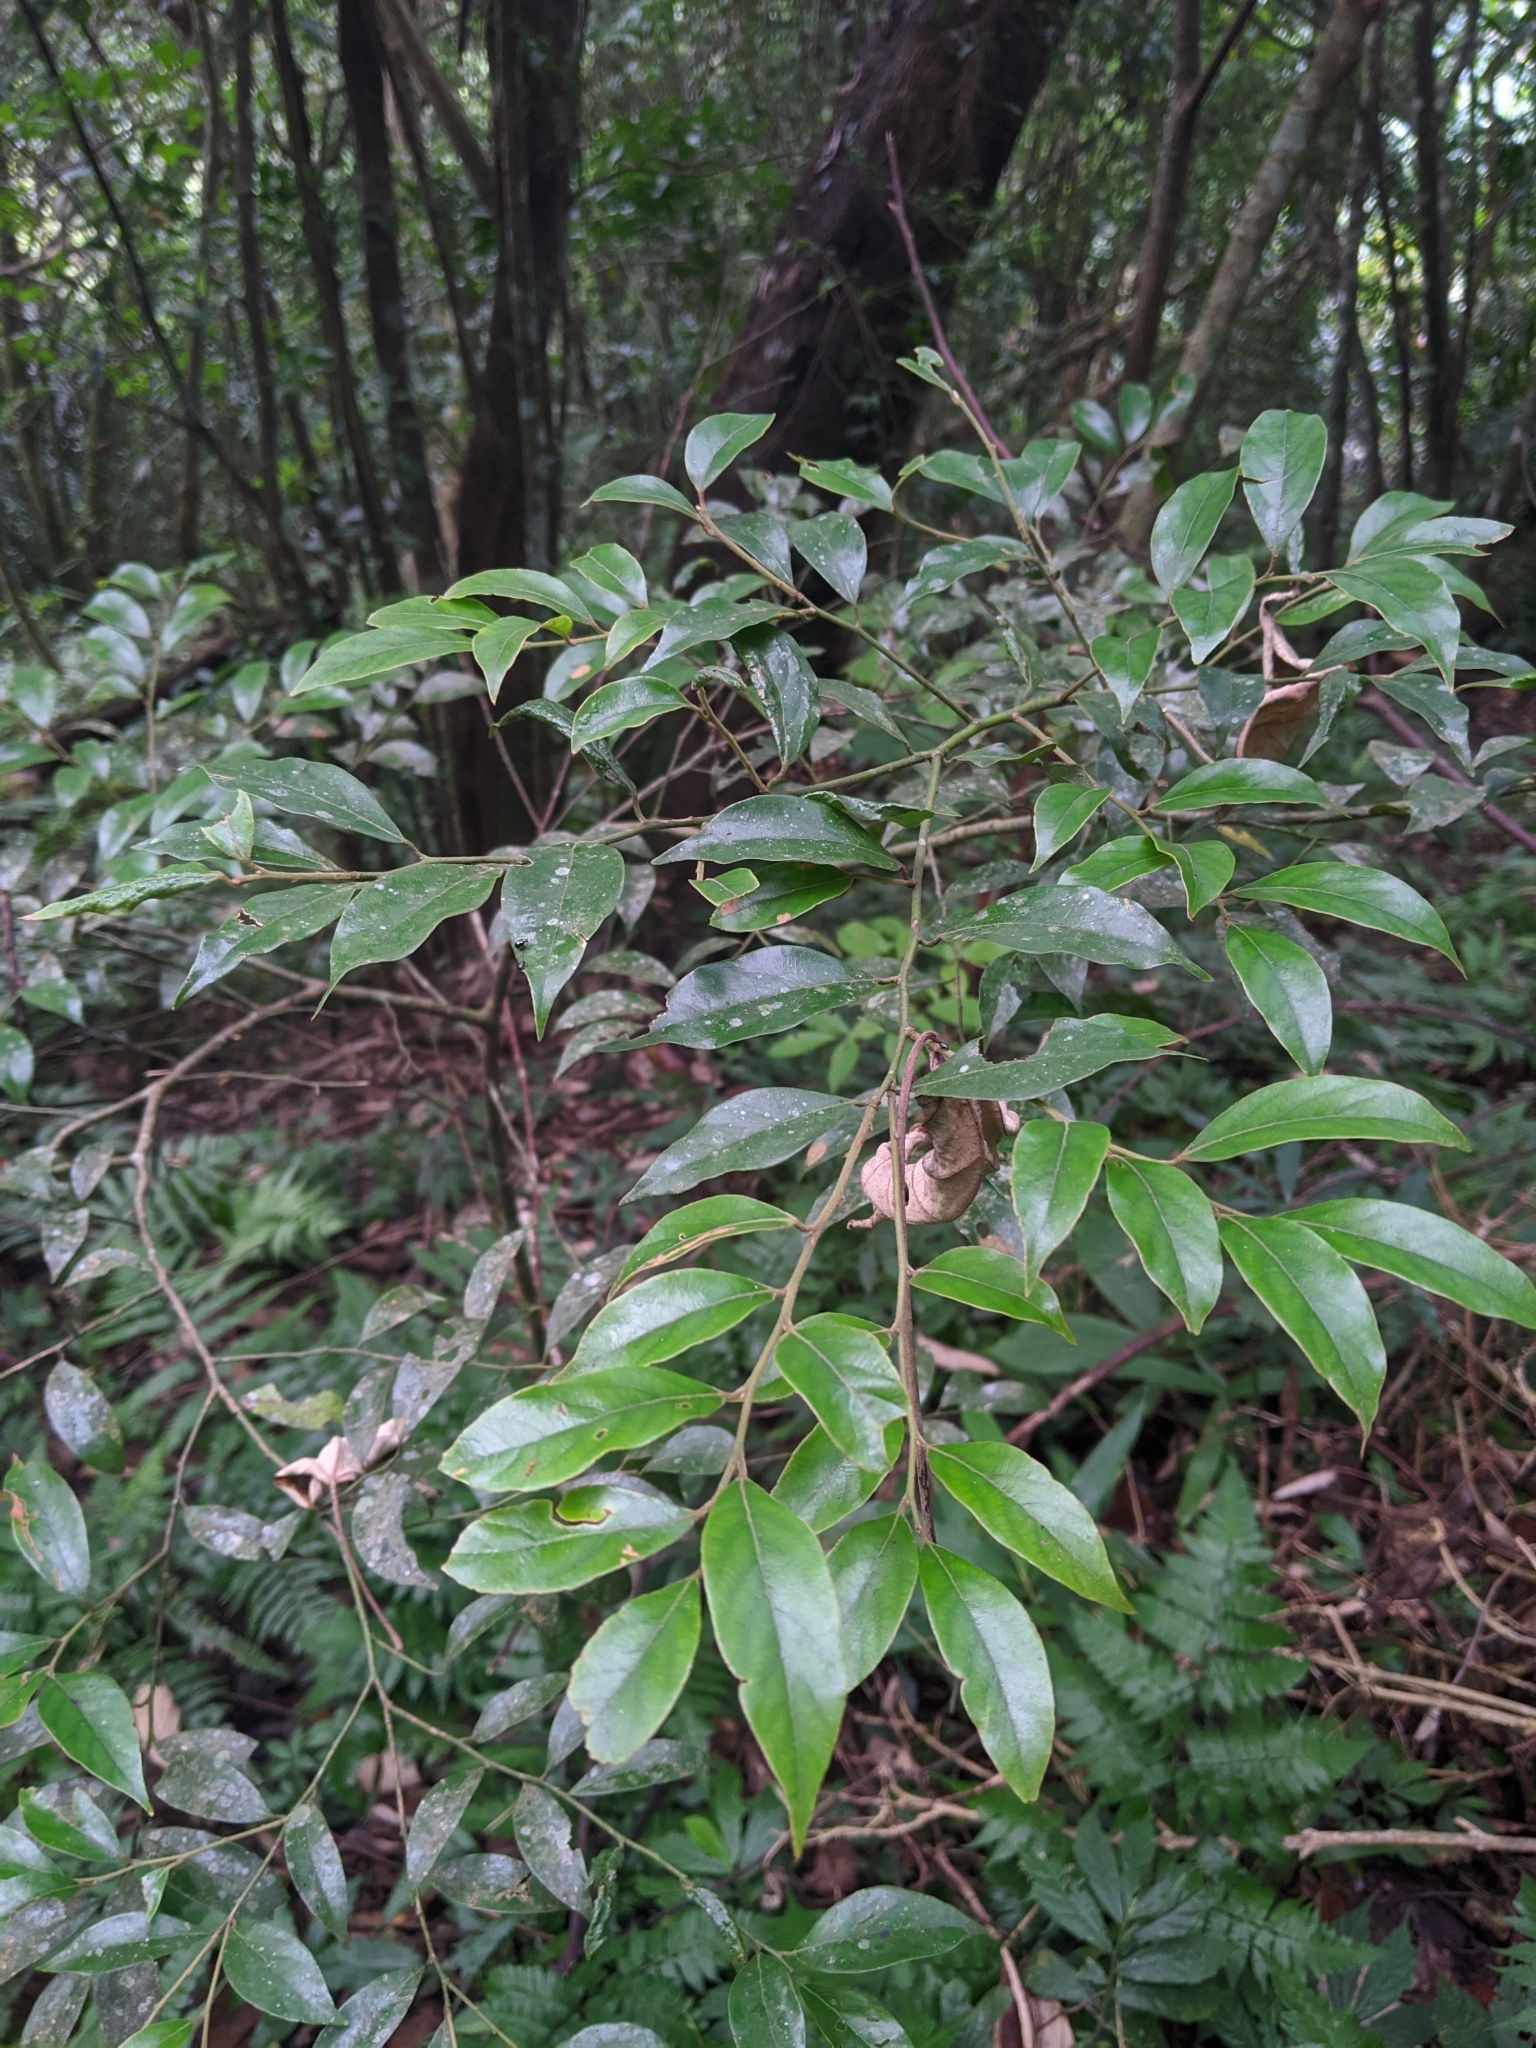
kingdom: Plantae
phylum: Tracheophyta
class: Magnoliopsida
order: Laurales
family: Lauraceae
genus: Lindera
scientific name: Lindera communis
